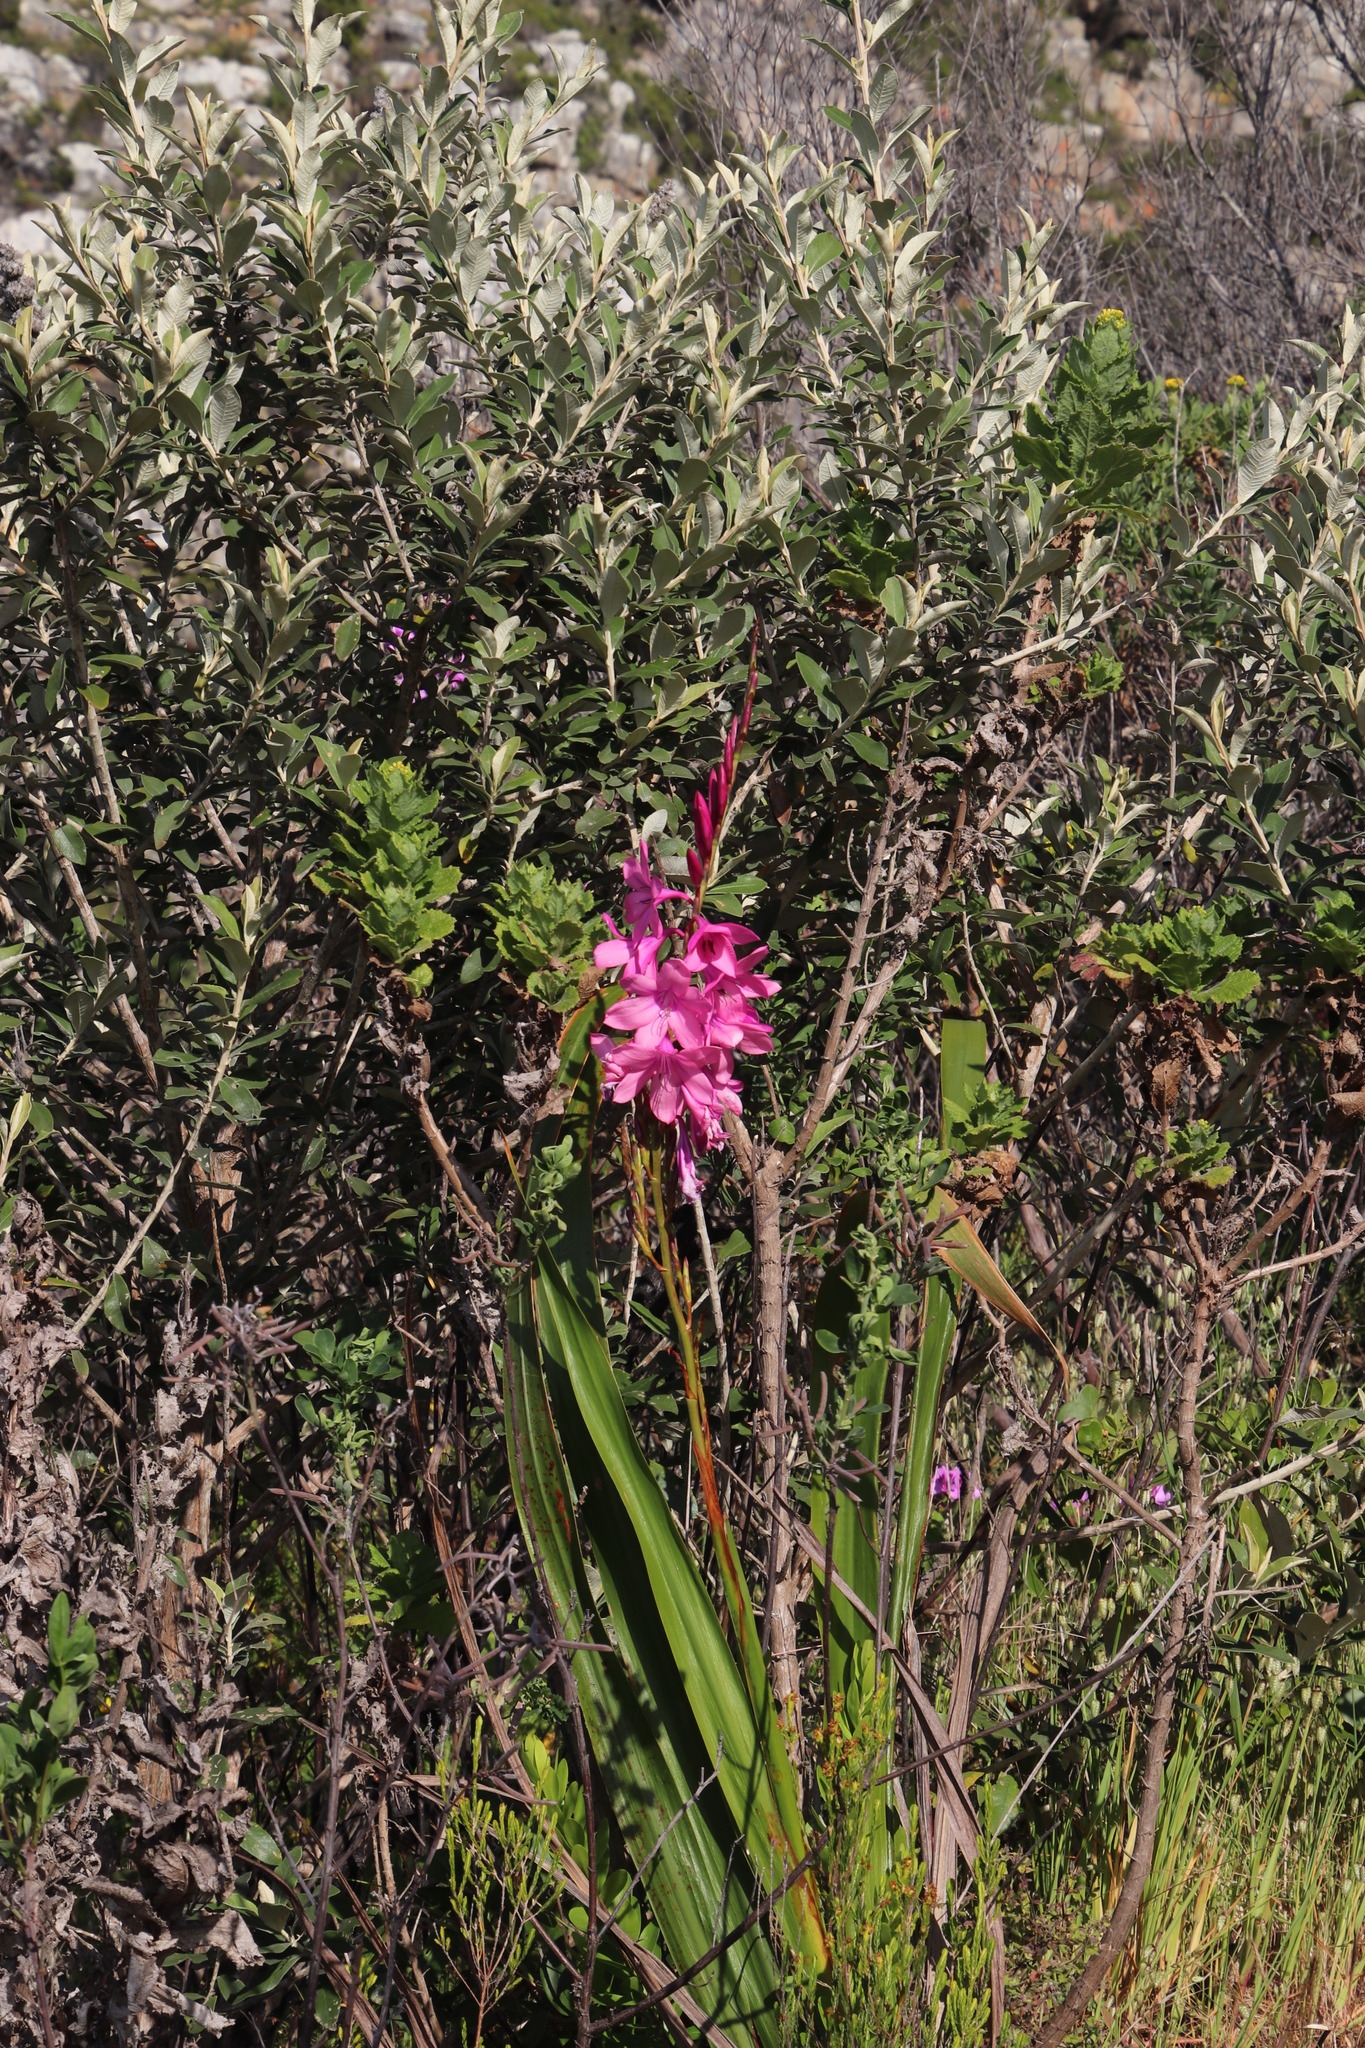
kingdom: Plantae
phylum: Tracheophyta
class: Liliopsida
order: Asparagales
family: Iridaceae
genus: Watsonia
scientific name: Watsonia borbonica
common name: Bugle-lily
